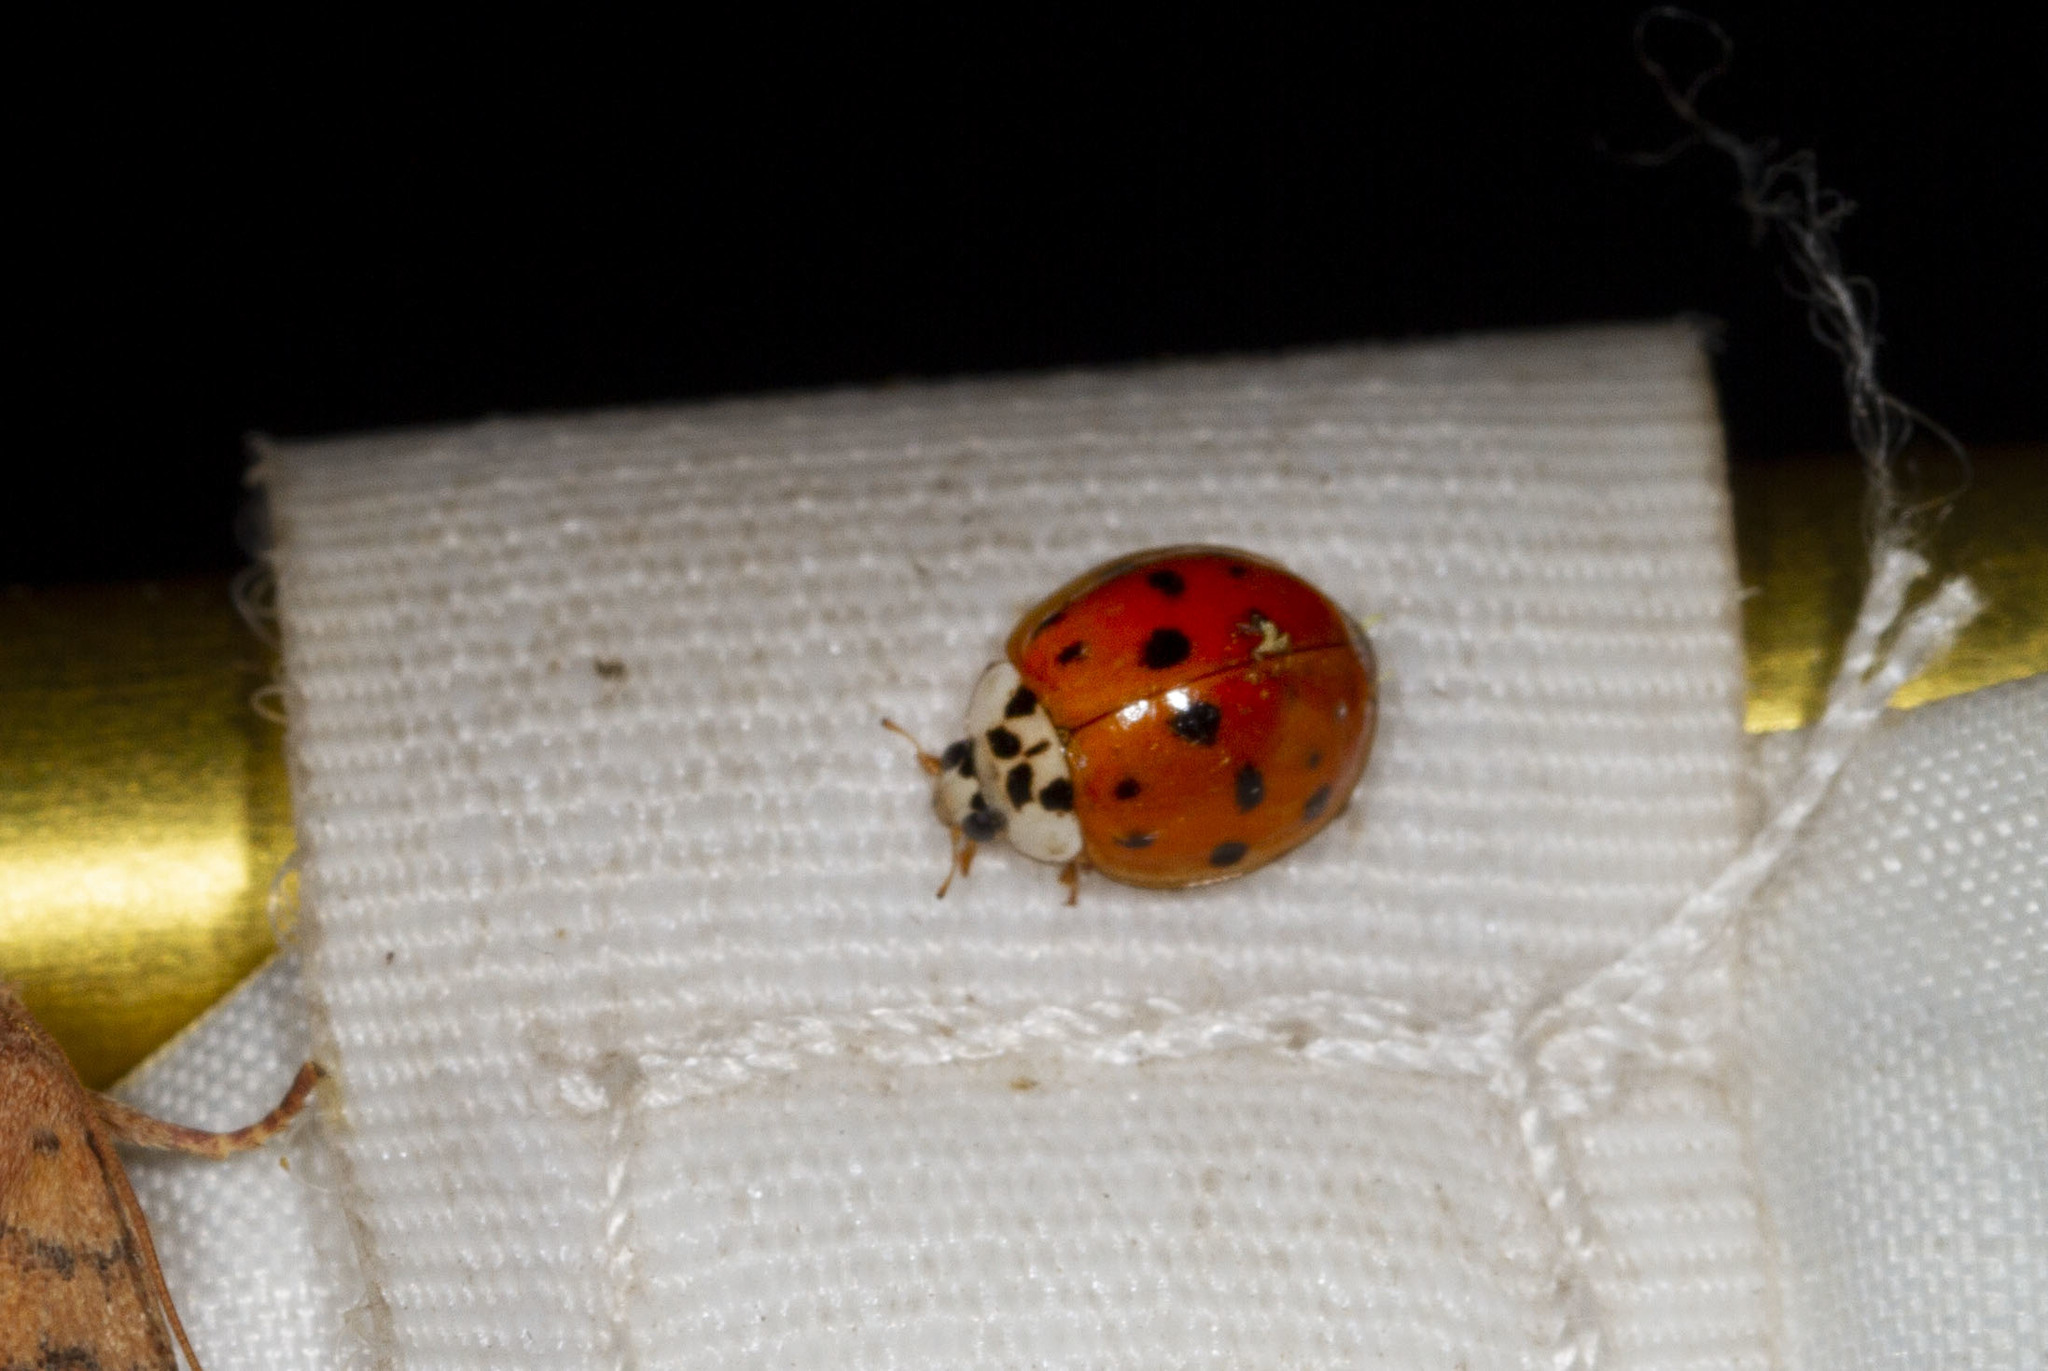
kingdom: Animalia
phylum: Arthropoda
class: Insecta
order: Coleoptera
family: Coccinellidae
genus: Harmonia
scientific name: Harmonia axyridis
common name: Harlequin ladybird
